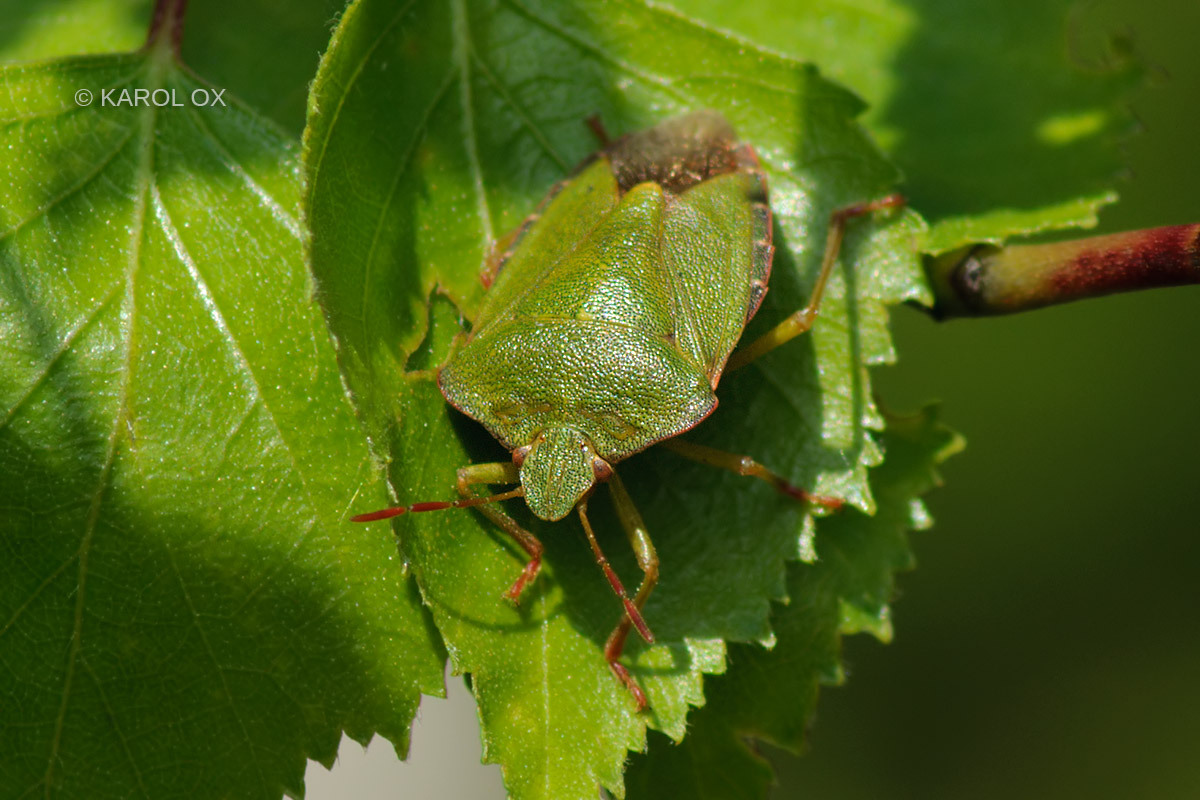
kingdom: Animalia
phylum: Arthropoda
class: Insecta
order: Hemiptera
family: Pentatomidae
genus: Palomena
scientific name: Palomena prasina
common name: Green shieldbug
